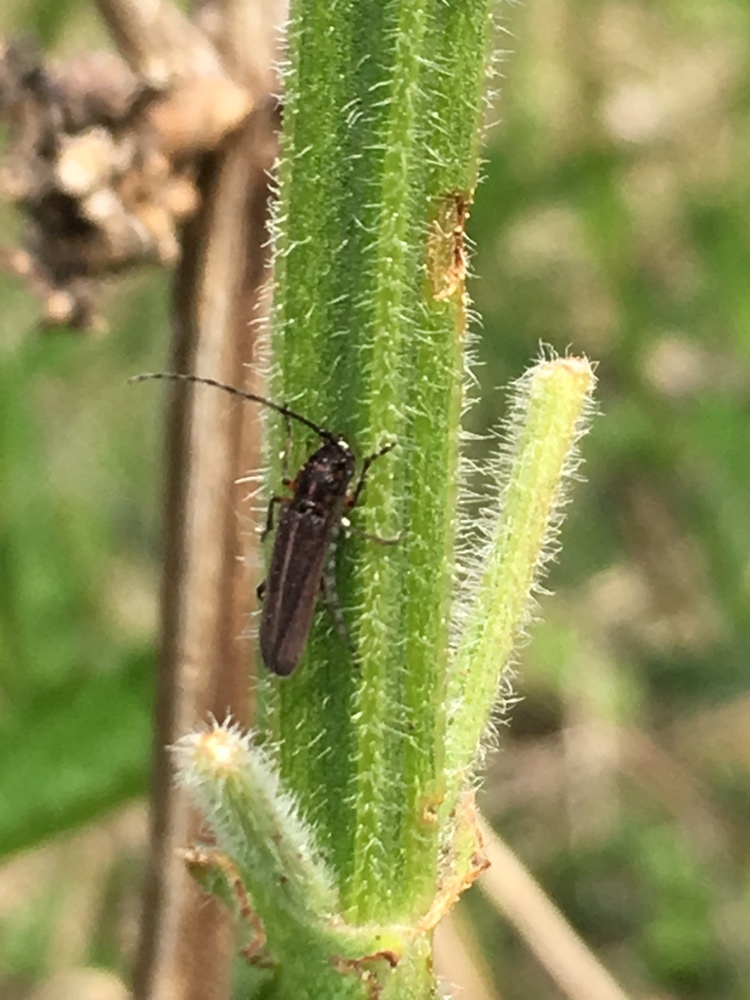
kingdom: Animalia
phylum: Arthropoda
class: Insecta
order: Coleoptera
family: Cerambycidae
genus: Emphytoeciosoma
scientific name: Emphytoeciosoma daguerrei
